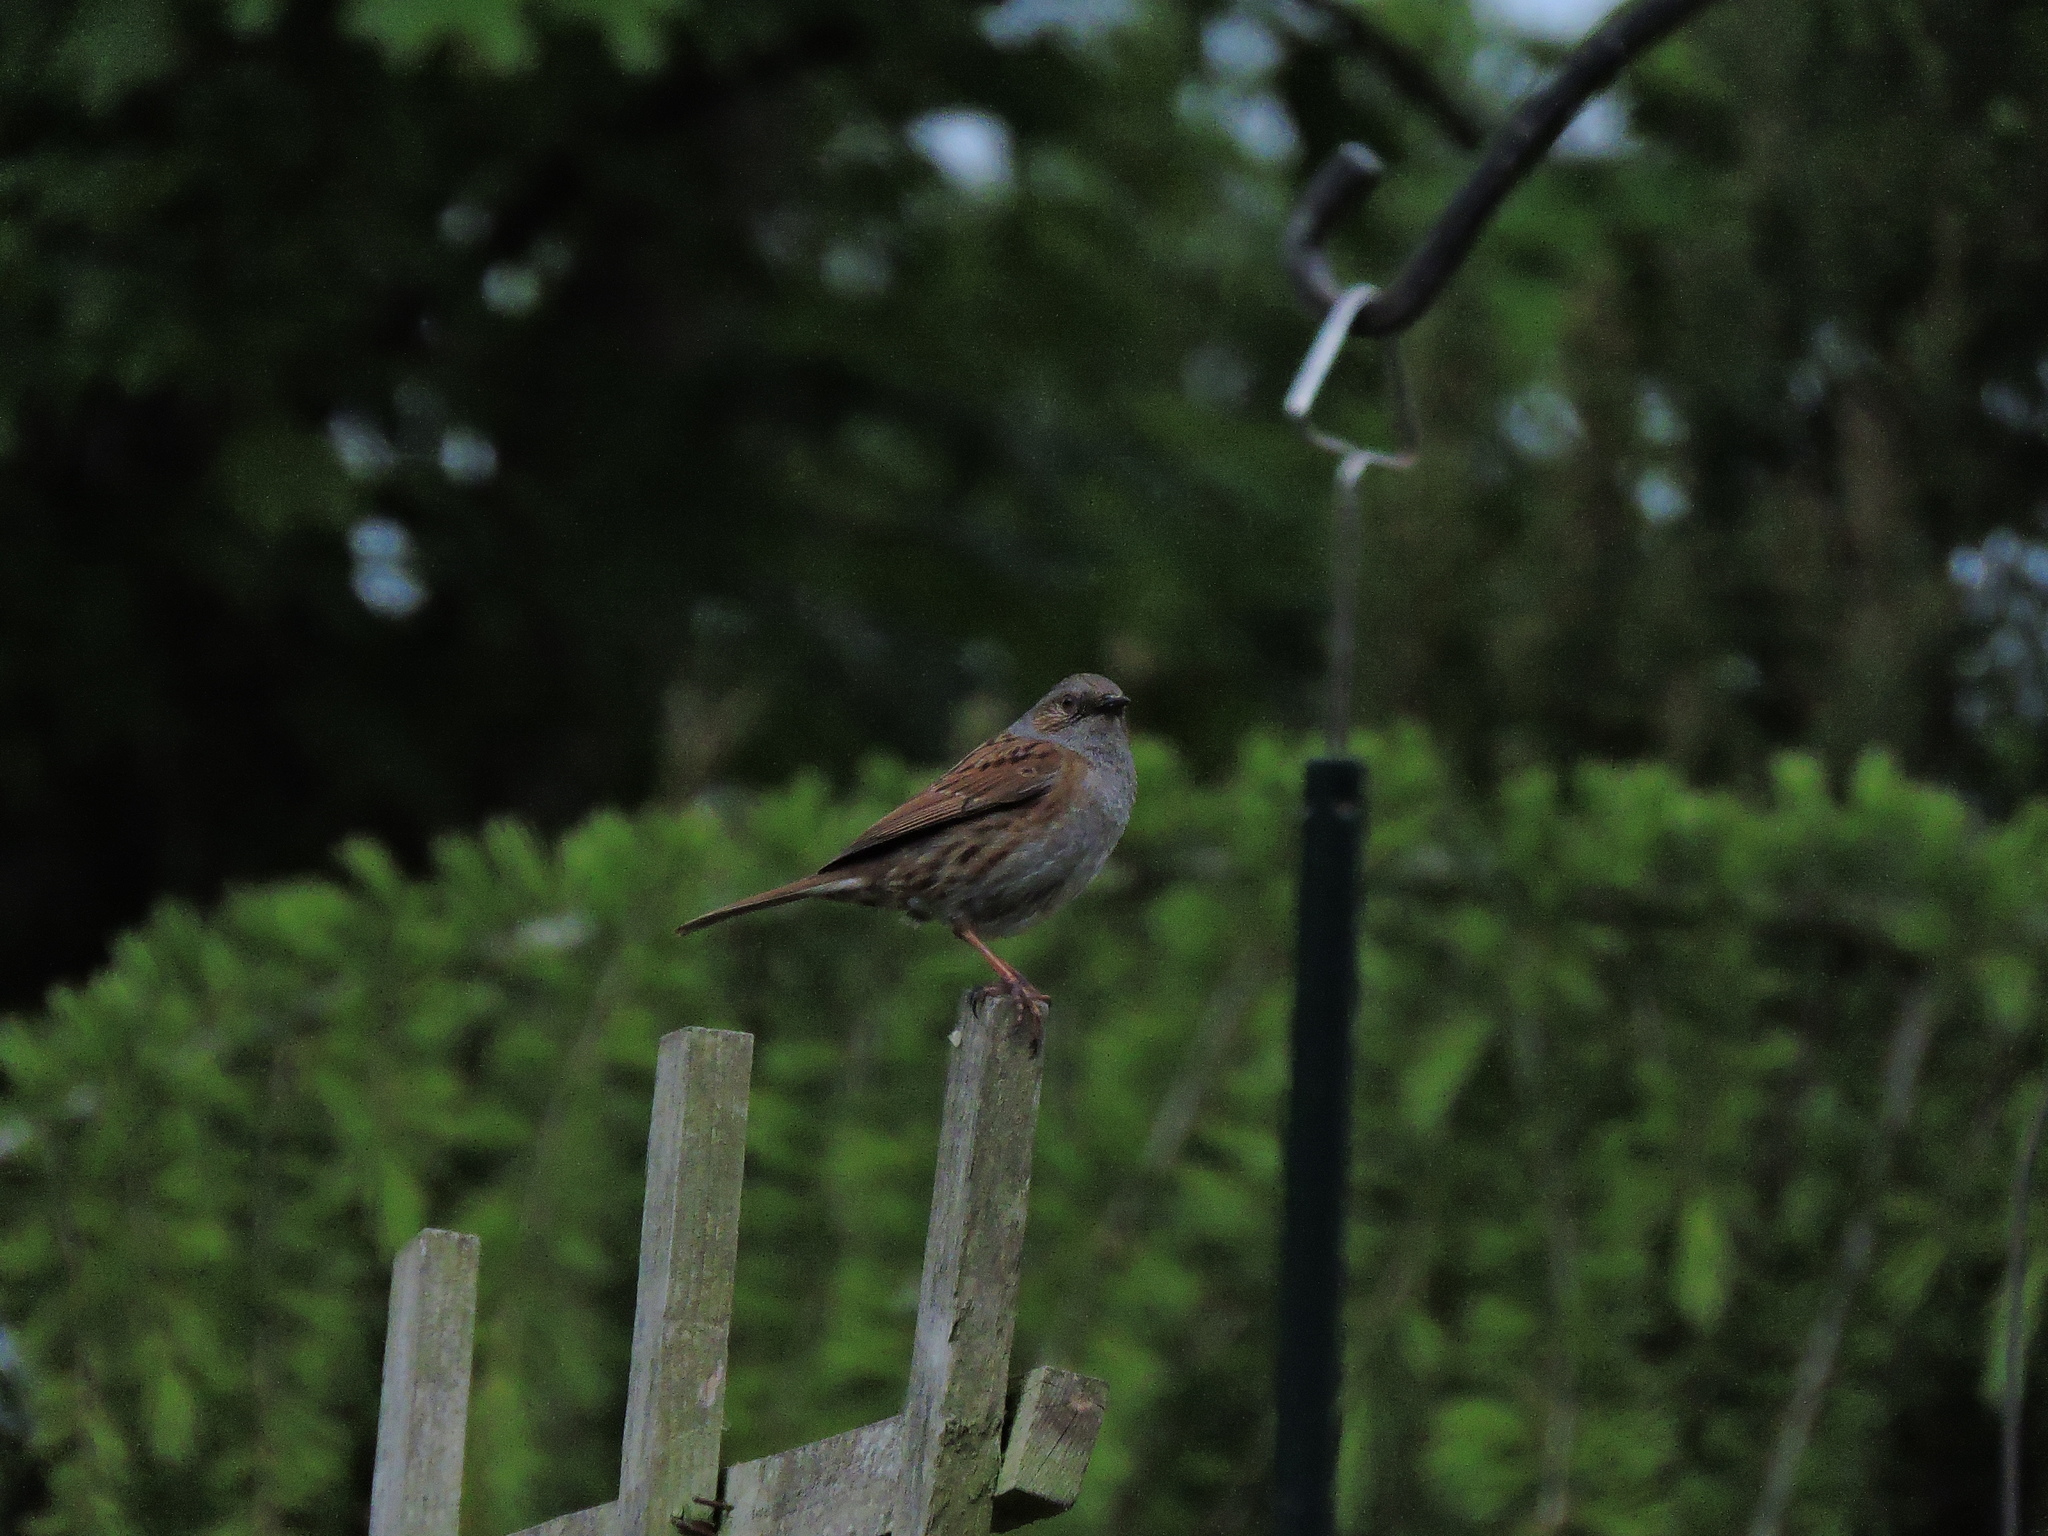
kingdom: Animalia
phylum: Chordata
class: Aves
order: Passeriformes
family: Prunellidae
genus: Prunella
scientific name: Prunella modularis
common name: Dunnock
